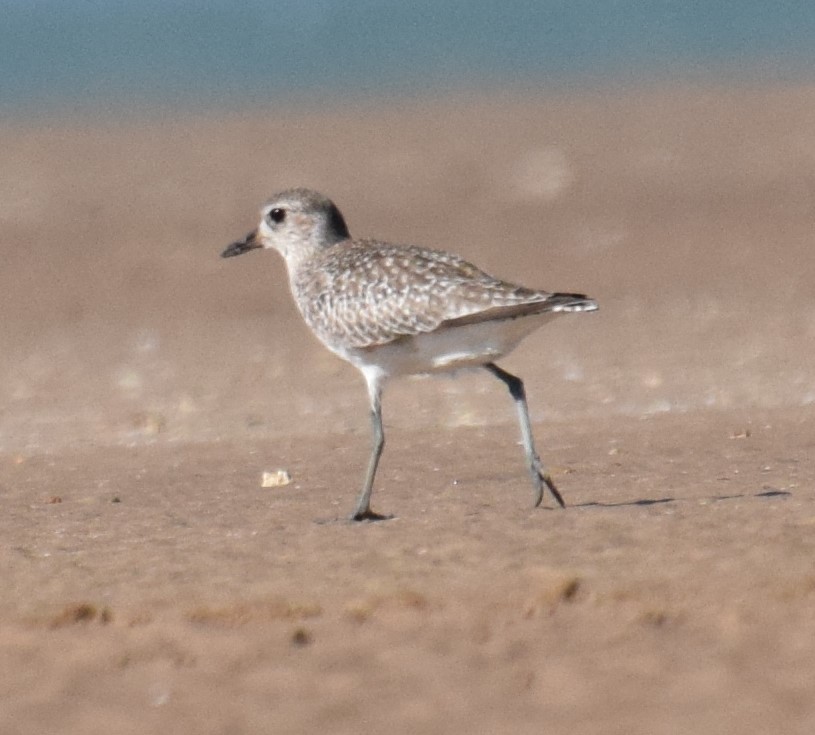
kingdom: Animalia
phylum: Chordata
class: Aves
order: Charadriiformes
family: Charadriidae
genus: Pluvialis
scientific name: Pluvialis squatarola
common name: Grey plover
